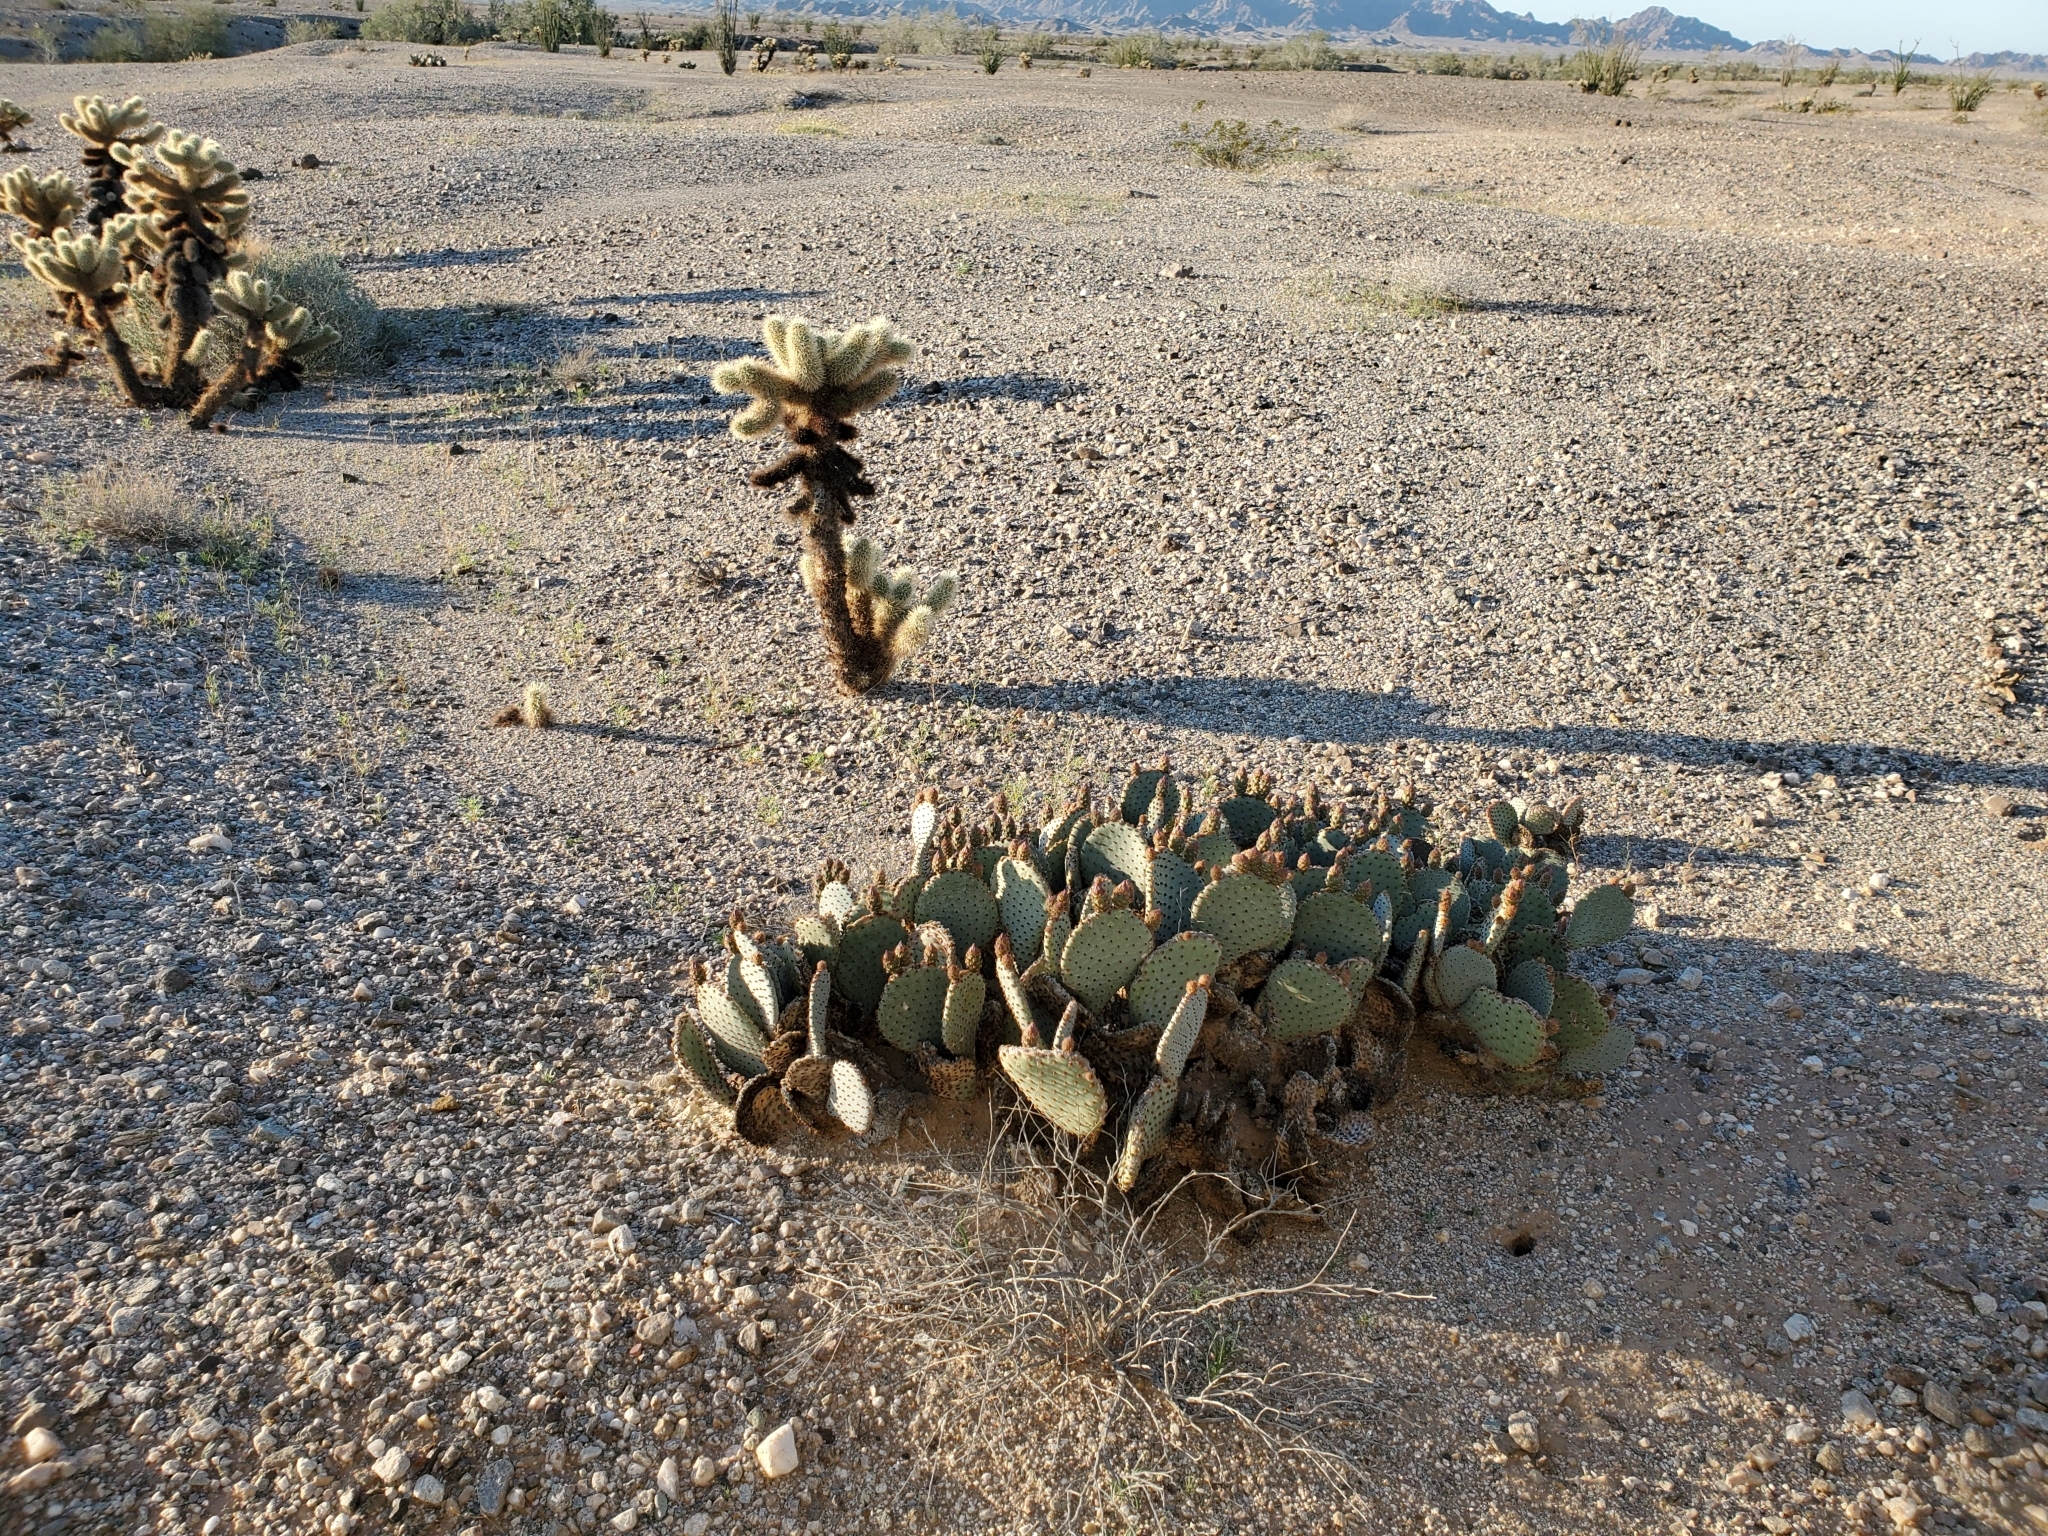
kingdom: Plantae
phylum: Tracheophyta
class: Magnoliopsida
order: Caryophyllales
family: Cactaceae
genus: Opuntia
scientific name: Opuntia basilaris
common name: Beavertail prickly-pear
